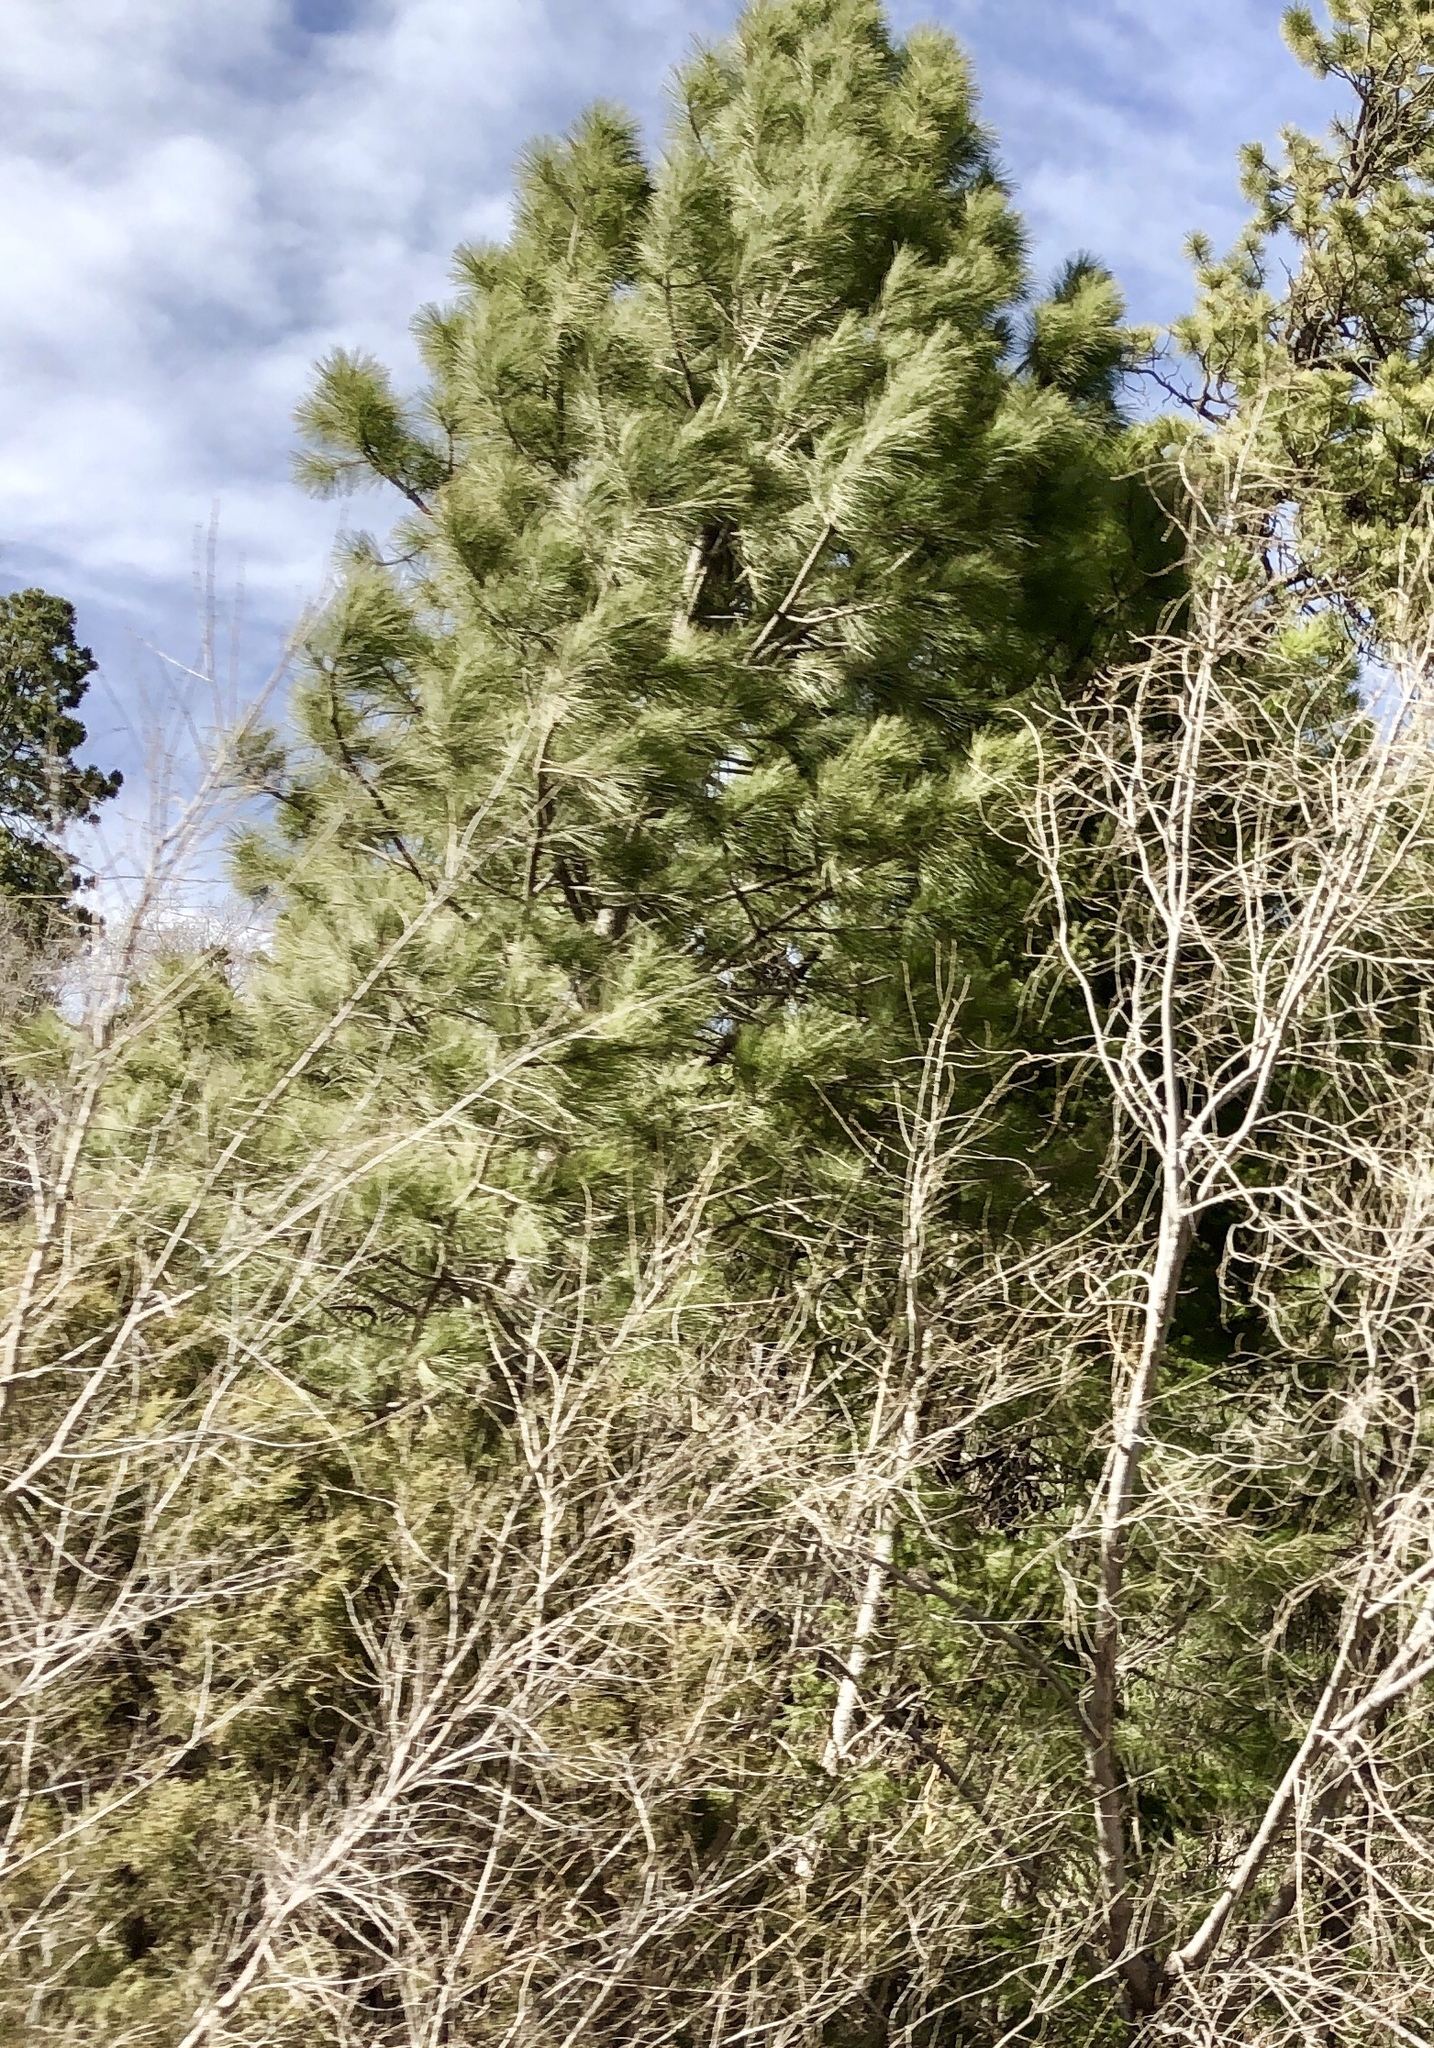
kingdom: Plantae
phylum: Tracheophyta
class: Pinopsida
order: Pinales
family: Pinaceae
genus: Pinus
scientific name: Pinus ponderosa
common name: Western yellow-pine
